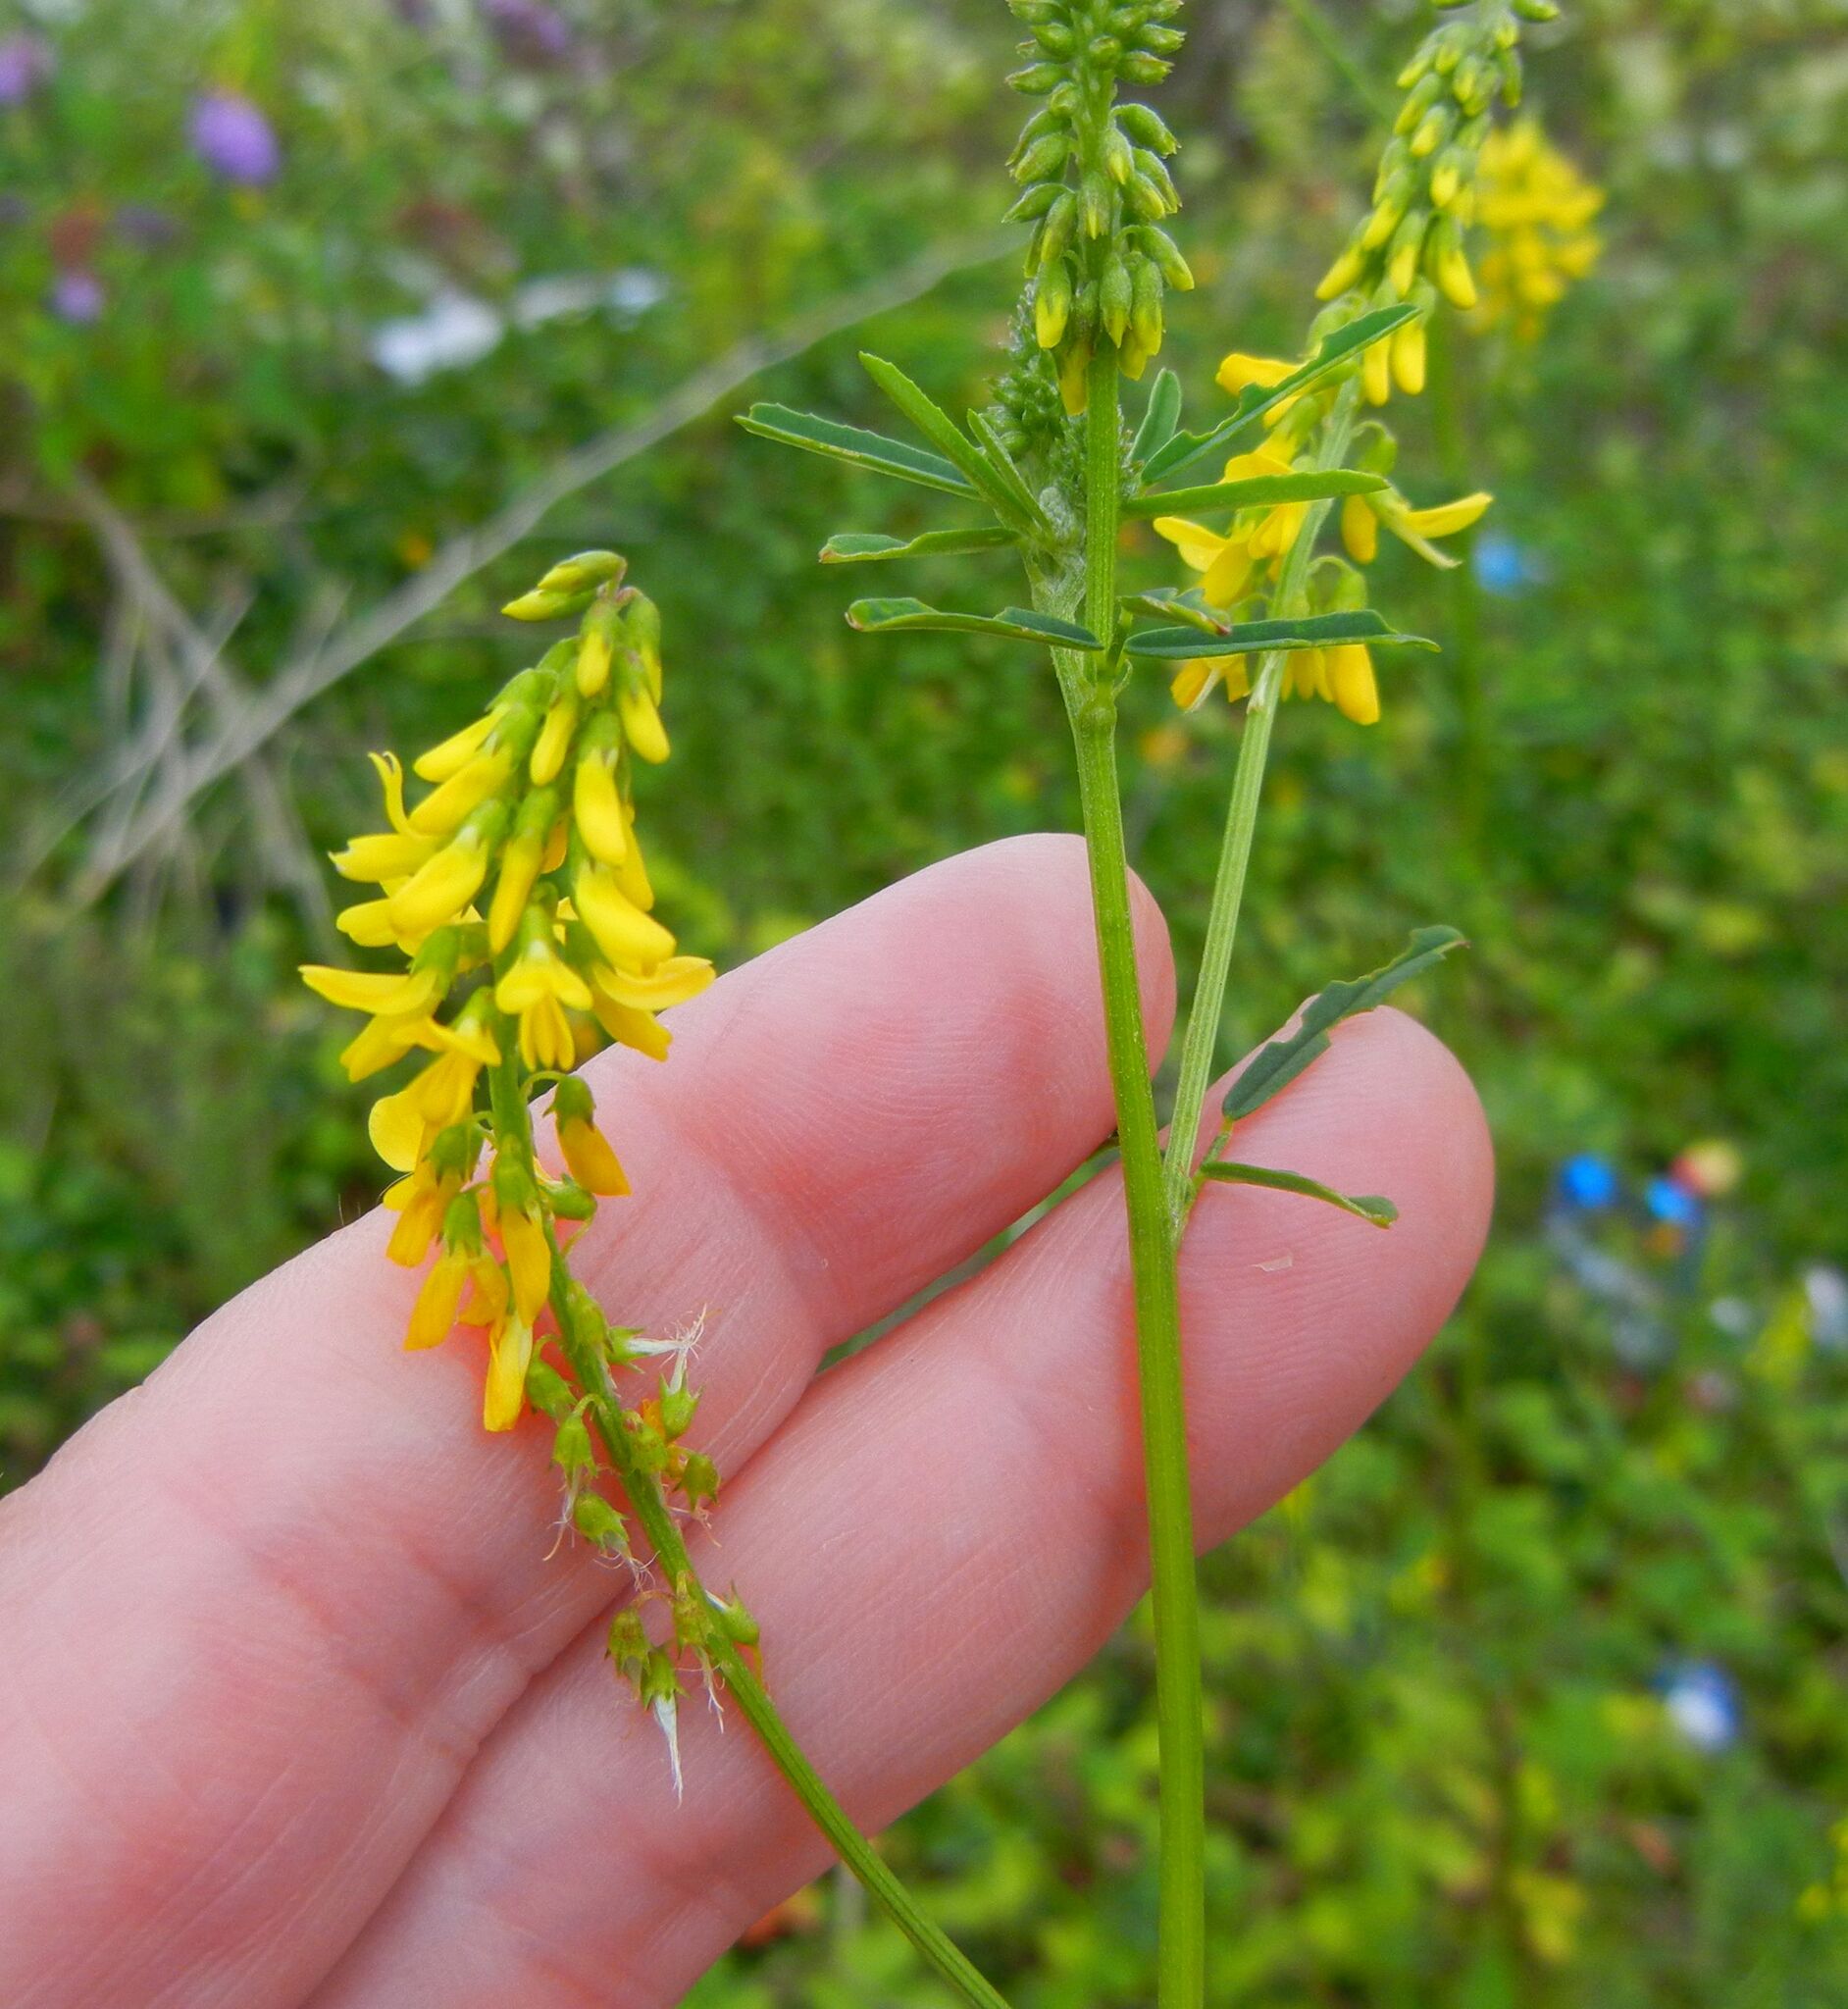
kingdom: Plantae
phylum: Tracheophyta
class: Magnoliopsida
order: Fabales
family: Fabaceae
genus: Melilotus
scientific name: Melilotus altissimus
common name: Tall melilot
